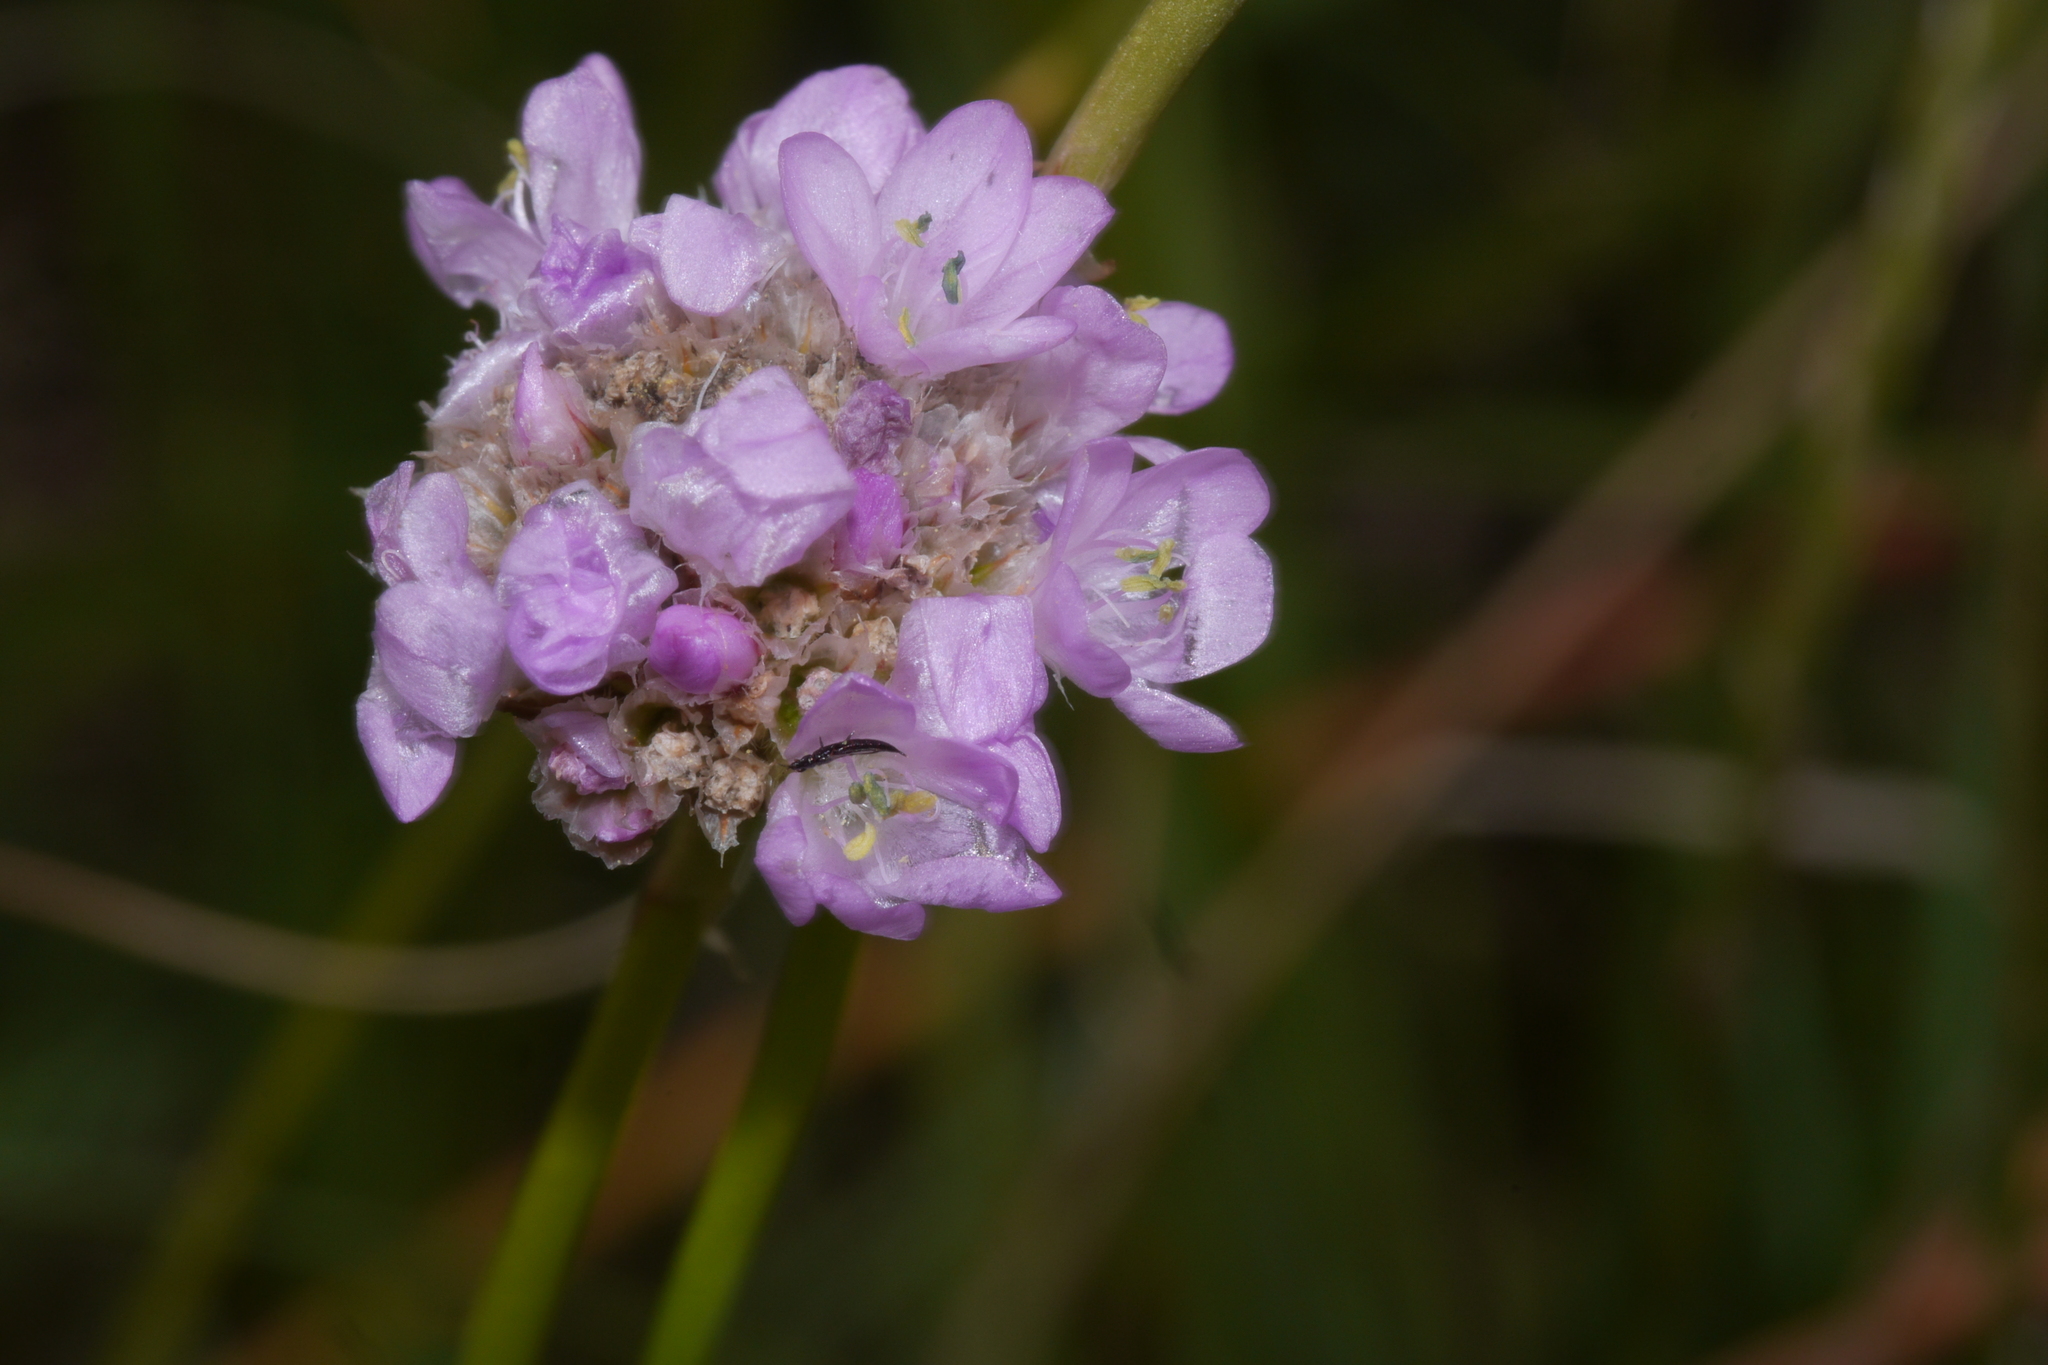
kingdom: Plantae
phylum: Tracheophyta
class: Magnoliopsida
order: Caryophyllales
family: Plumbaginaceae
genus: Armeria
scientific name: Armeria maritima
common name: Thrift
